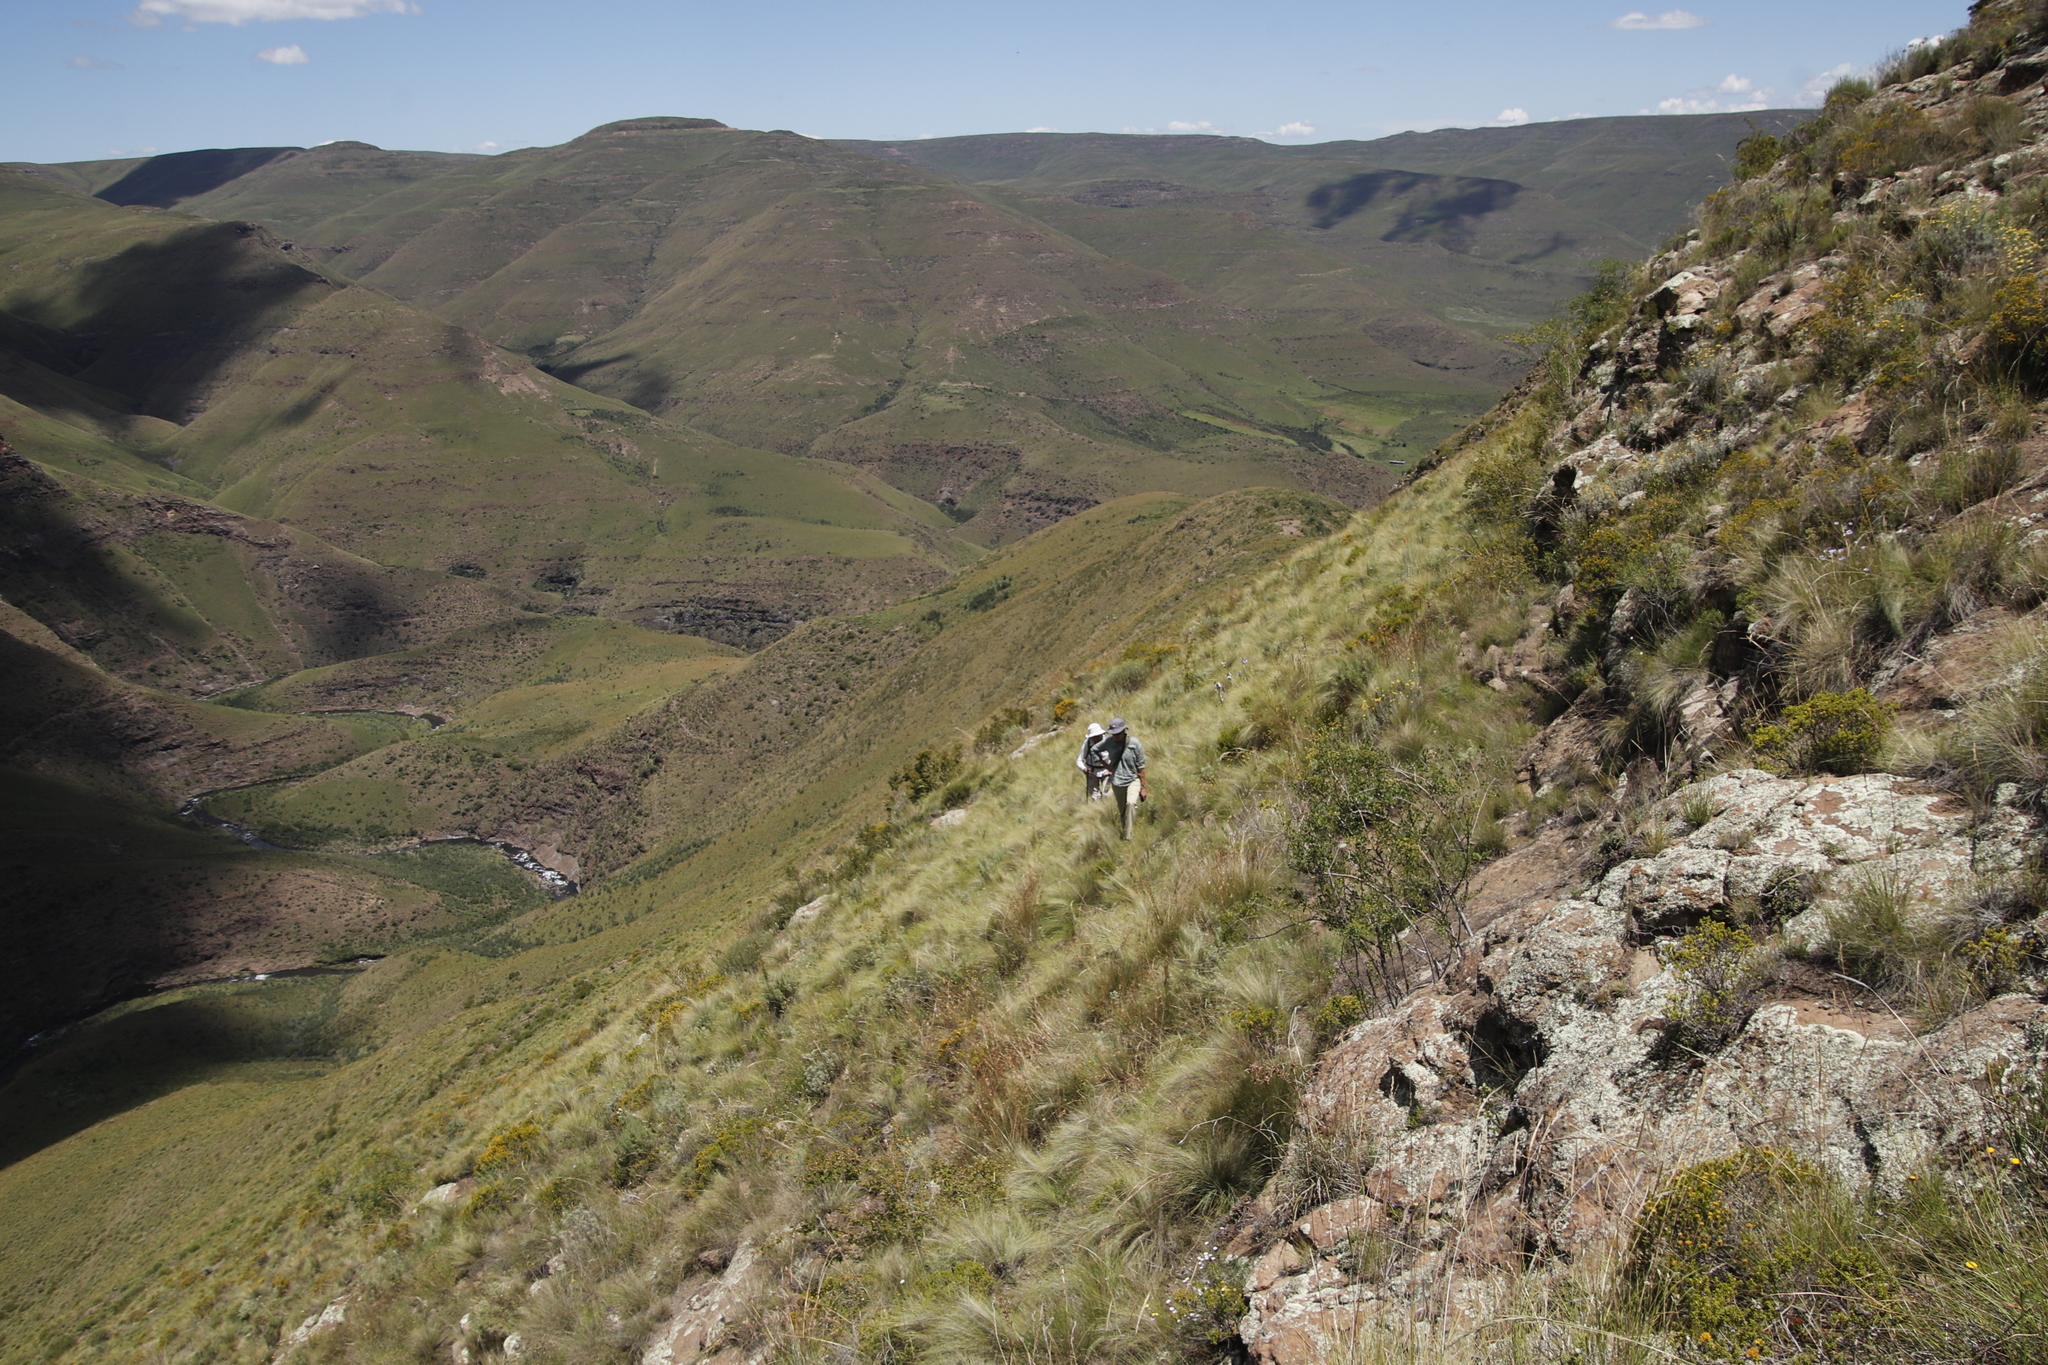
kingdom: Plantae
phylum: Tracheophyta
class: Magnoliopsida
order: Asterales
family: Asteraceae
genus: Berkheya
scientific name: Berkheya purpurea
